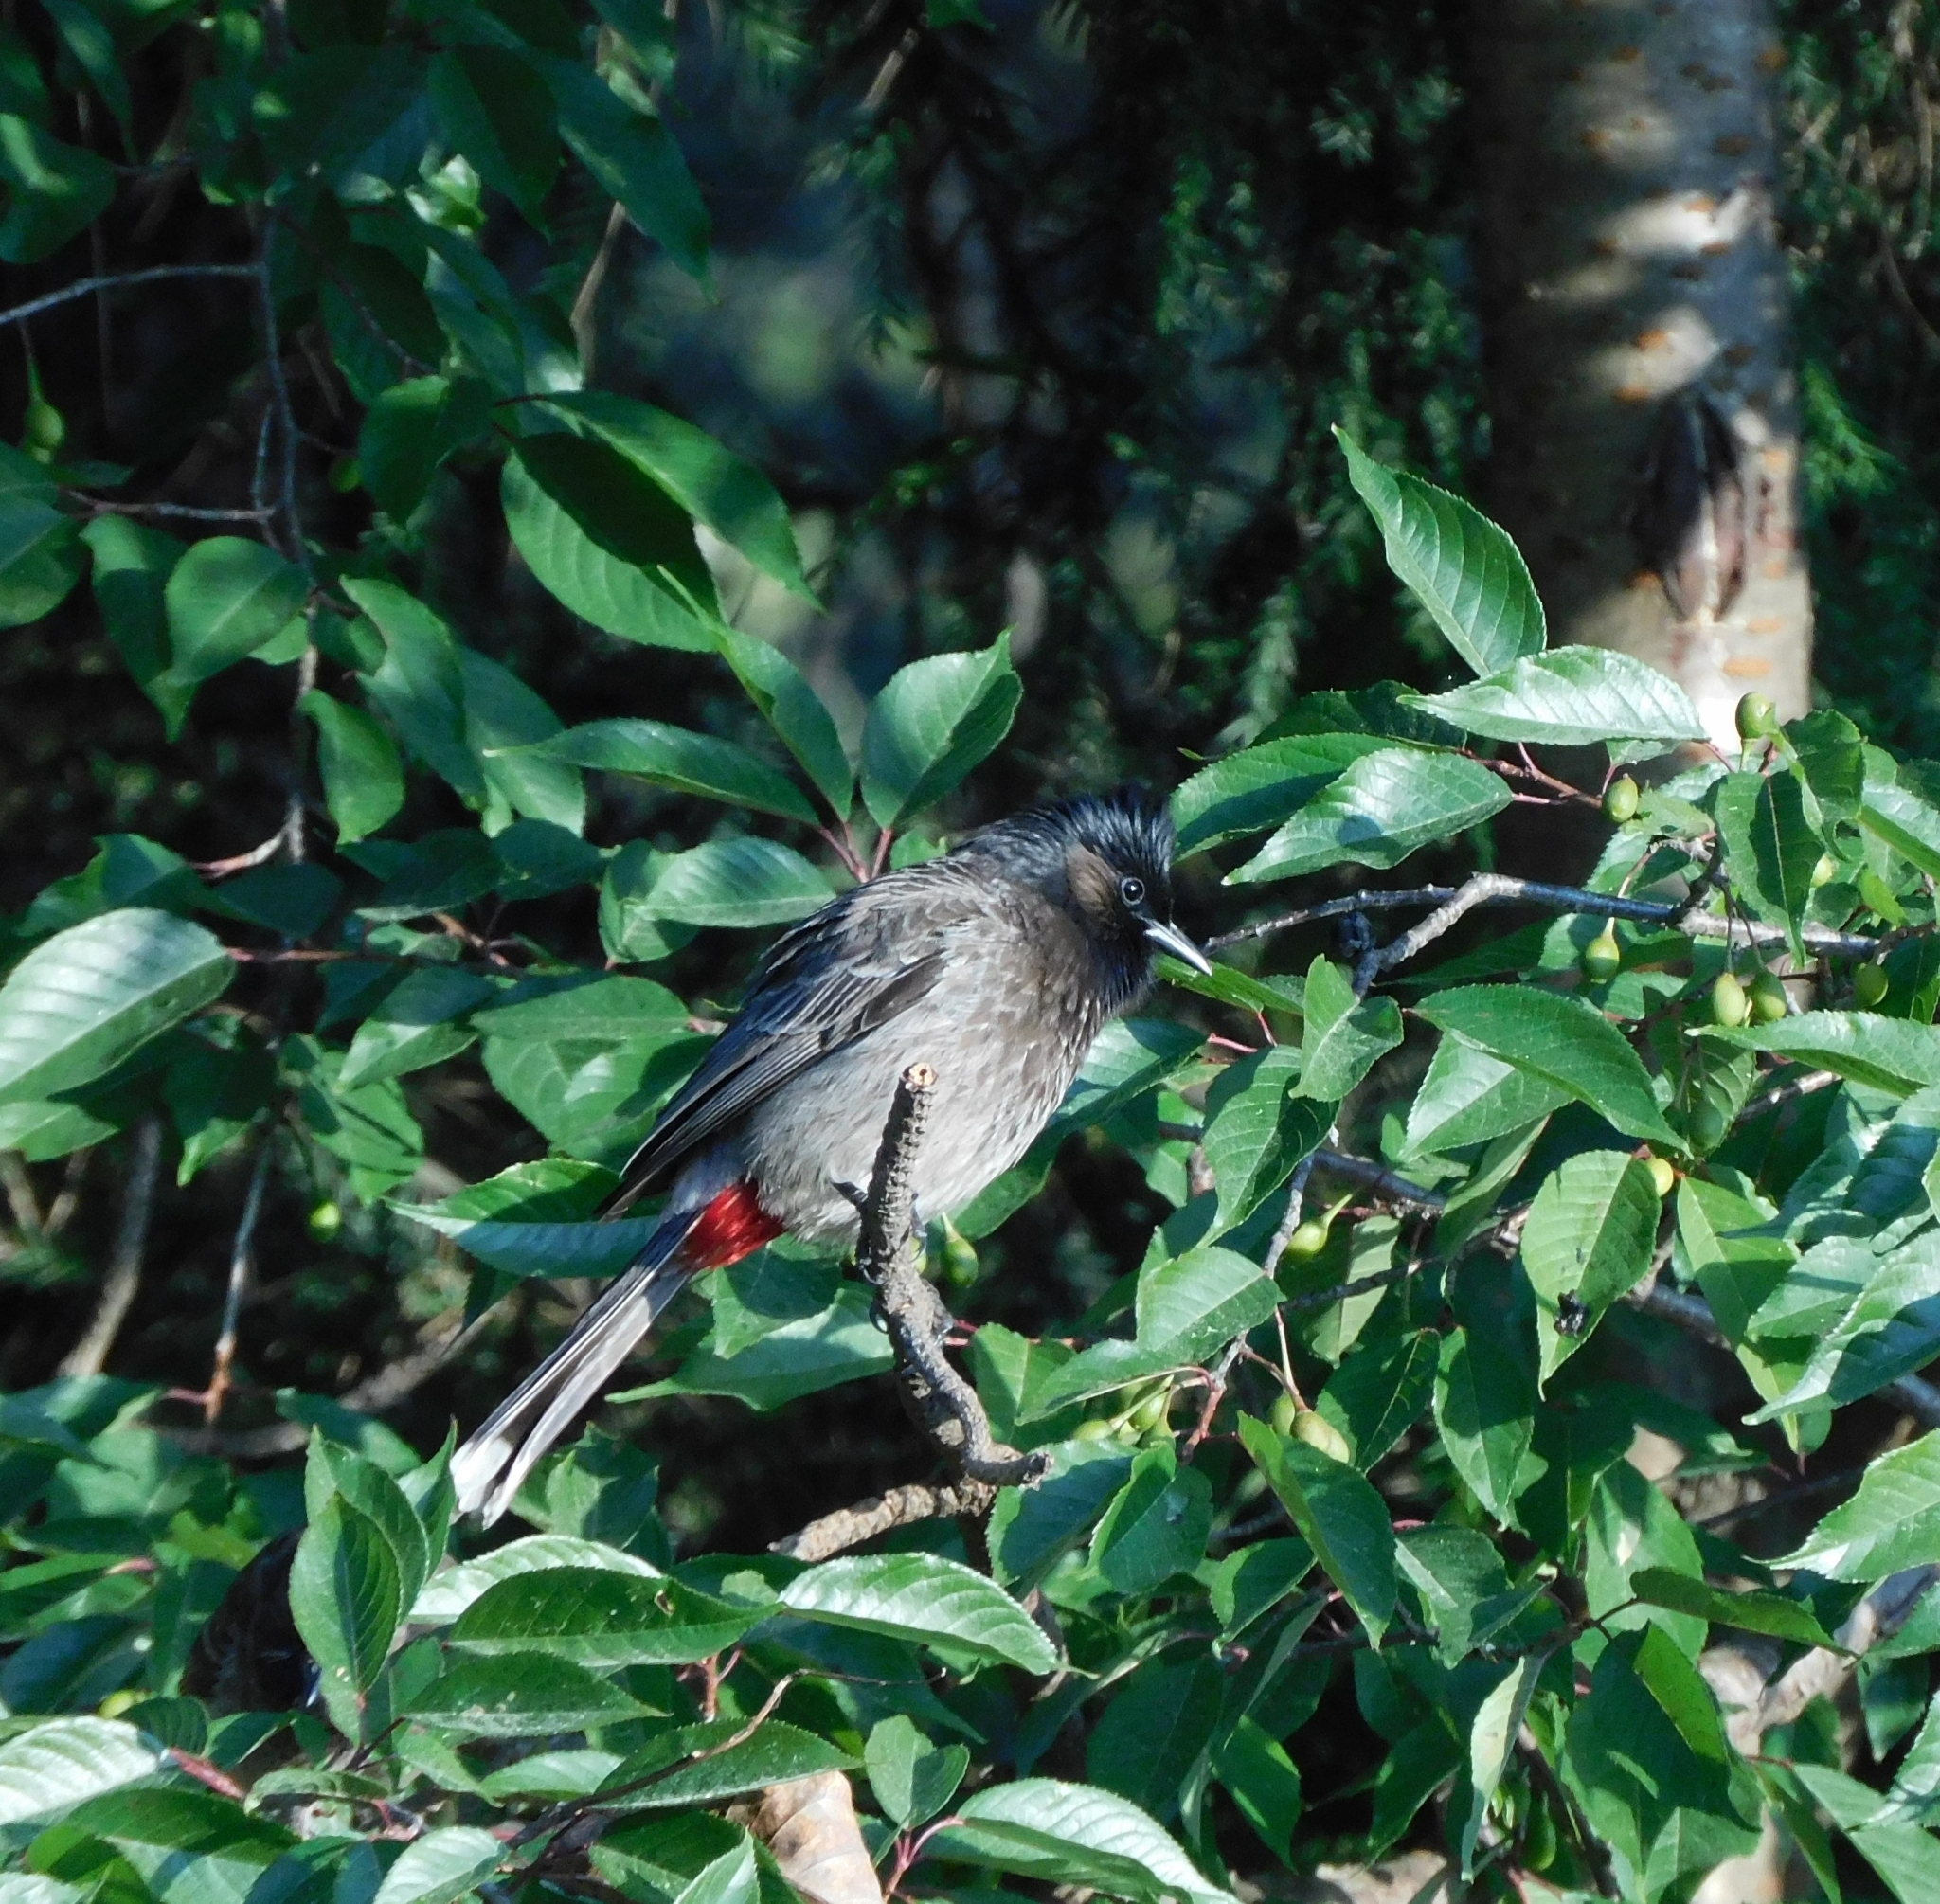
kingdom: Animalia
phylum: Chordata
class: Aves
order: Passeriformes
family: Pycnonotidae
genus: Pycnonotus
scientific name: Pycnonotus cafer
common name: Red-vented bulbul
